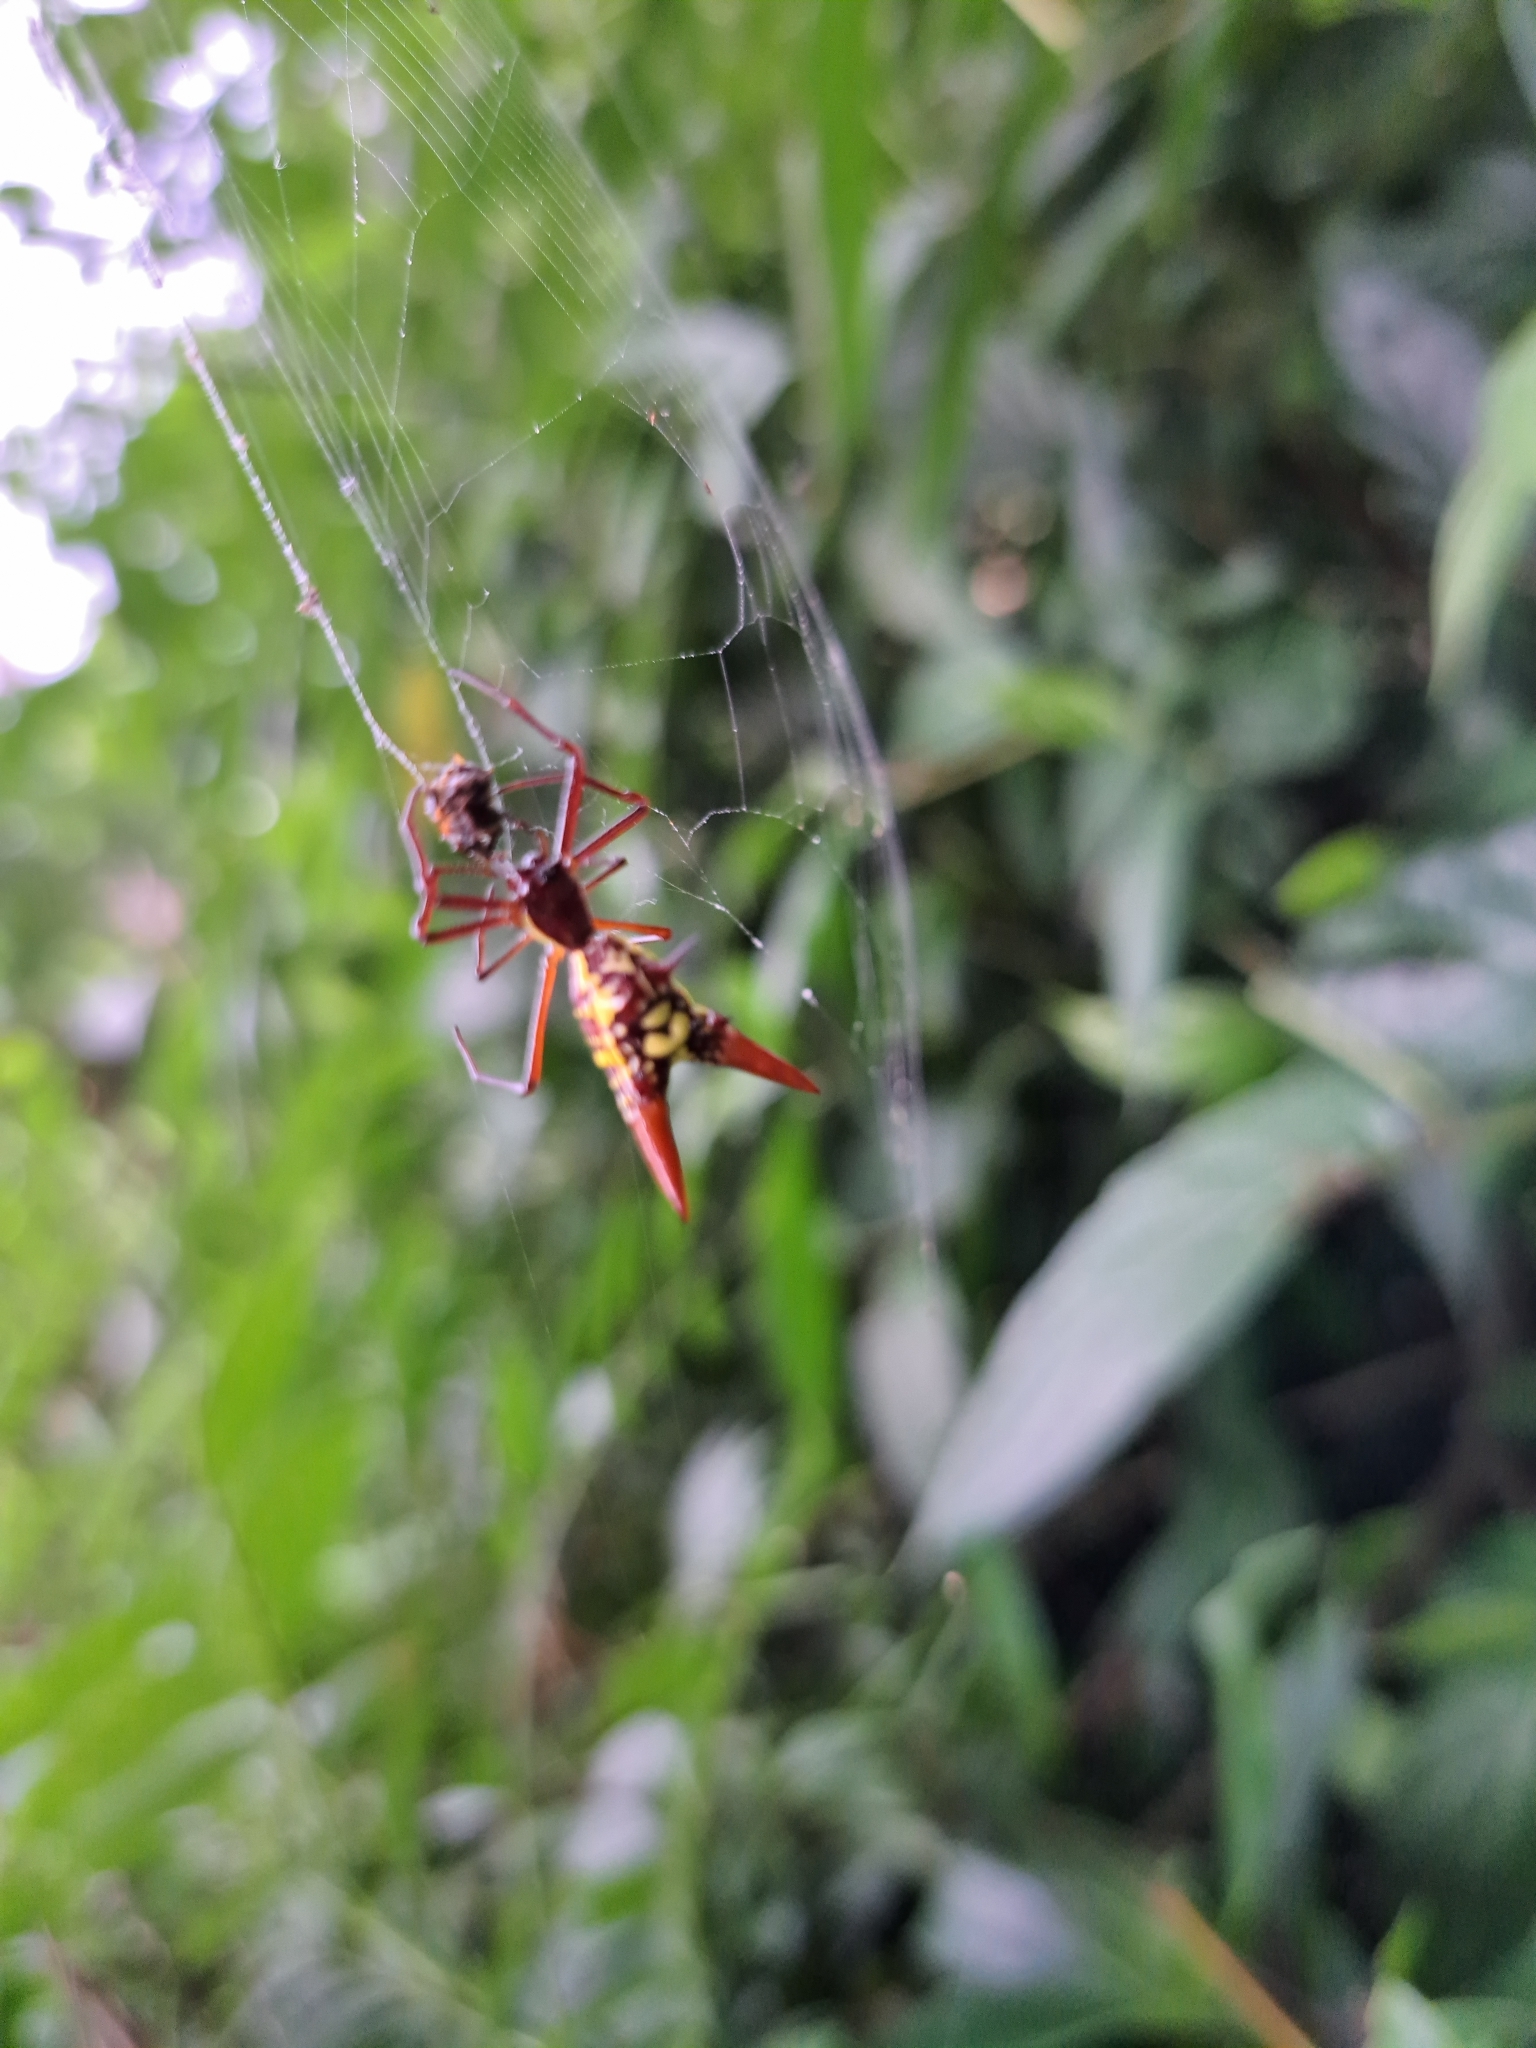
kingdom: Animalia
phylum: Arthropoda
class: Arachnida
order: Araneae
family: Araneidae
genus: Micrathena
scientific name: Micrathena sexspinosa
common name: Orb weavers
